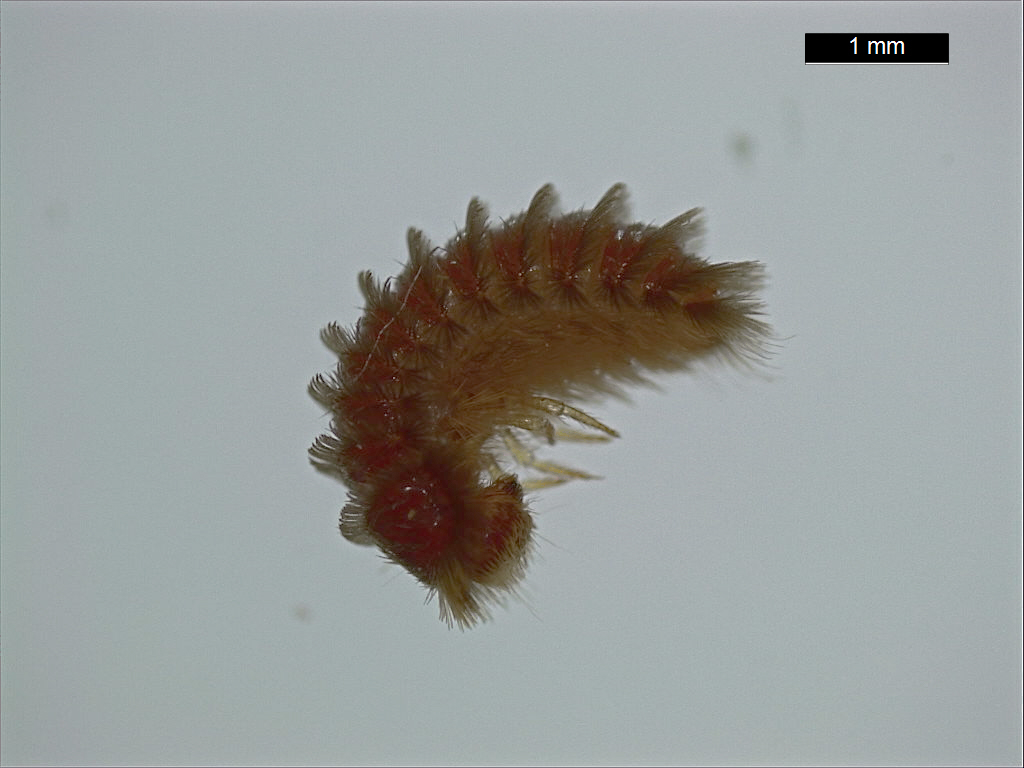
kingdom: Animalia
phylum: Arthropoda
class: Insecta
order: Coleoptera
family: Dermestidae
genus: Thylodrias
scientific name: Thylodrias contractus
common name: Odd beetle
